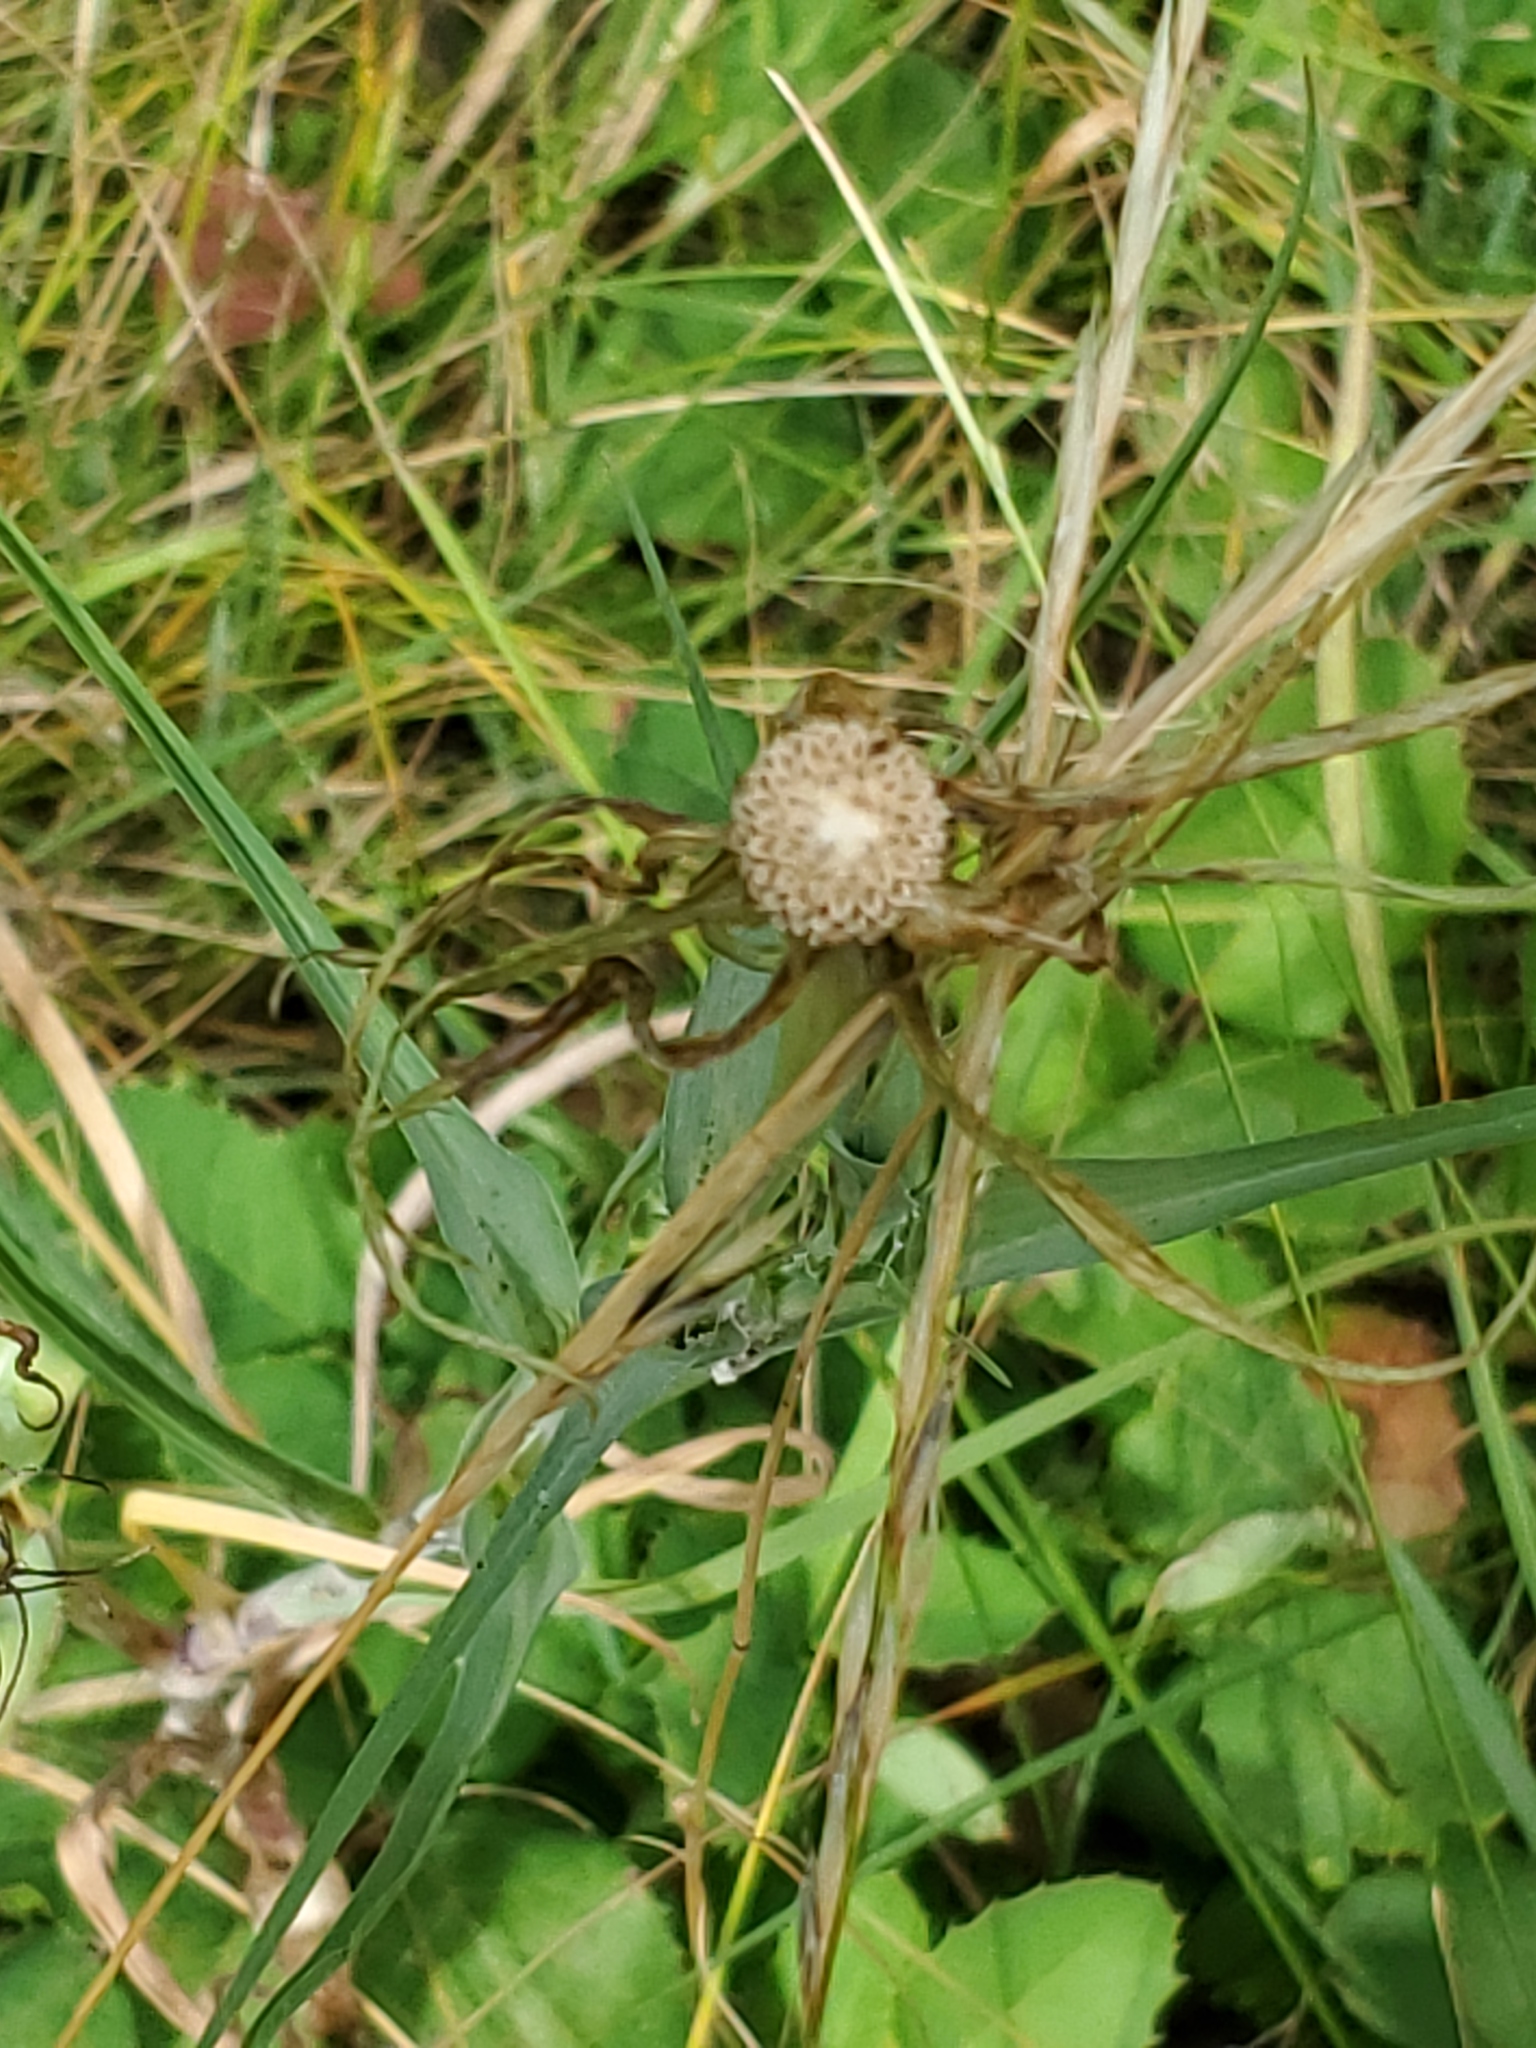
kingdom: Plantae
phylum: Tracheophyta
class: Magnoliopsida
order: Asterales
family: Asteraceae
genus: Tragopogon
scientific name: Tragopogon dubius
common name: Yellow salsify
